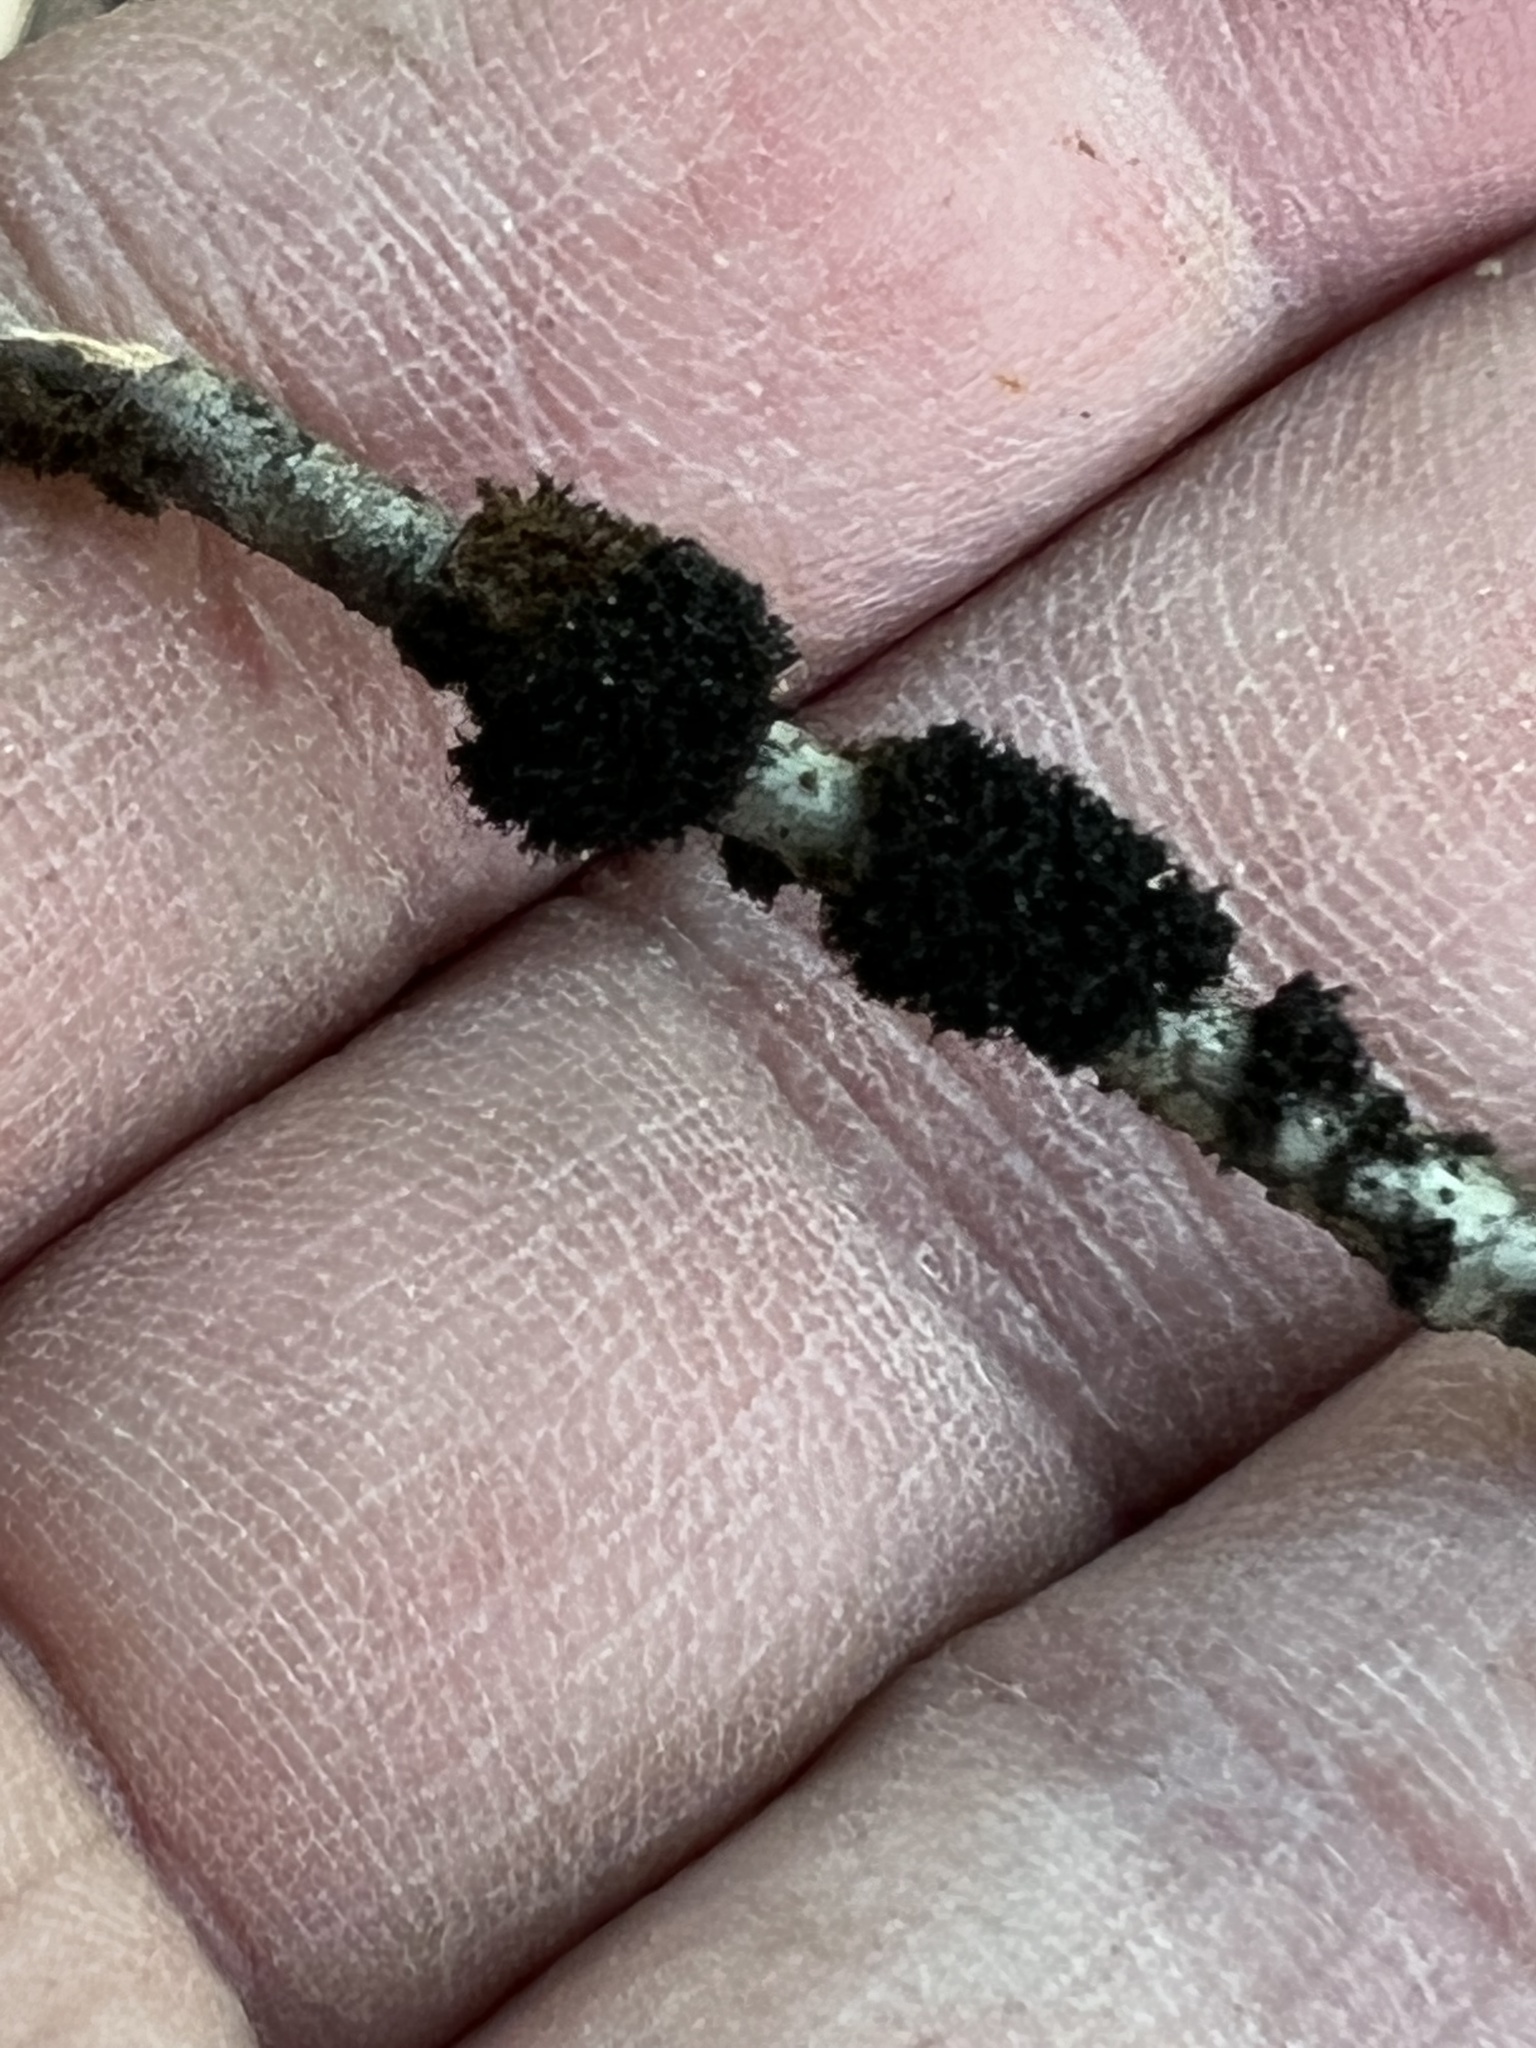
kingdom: Fungi
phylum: Ascomycota
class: Dothideomycetes
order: Capnodiales
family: Capnodiaceae
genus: Scorias
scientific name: Scorias spongiosa
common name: Black sooty mold
